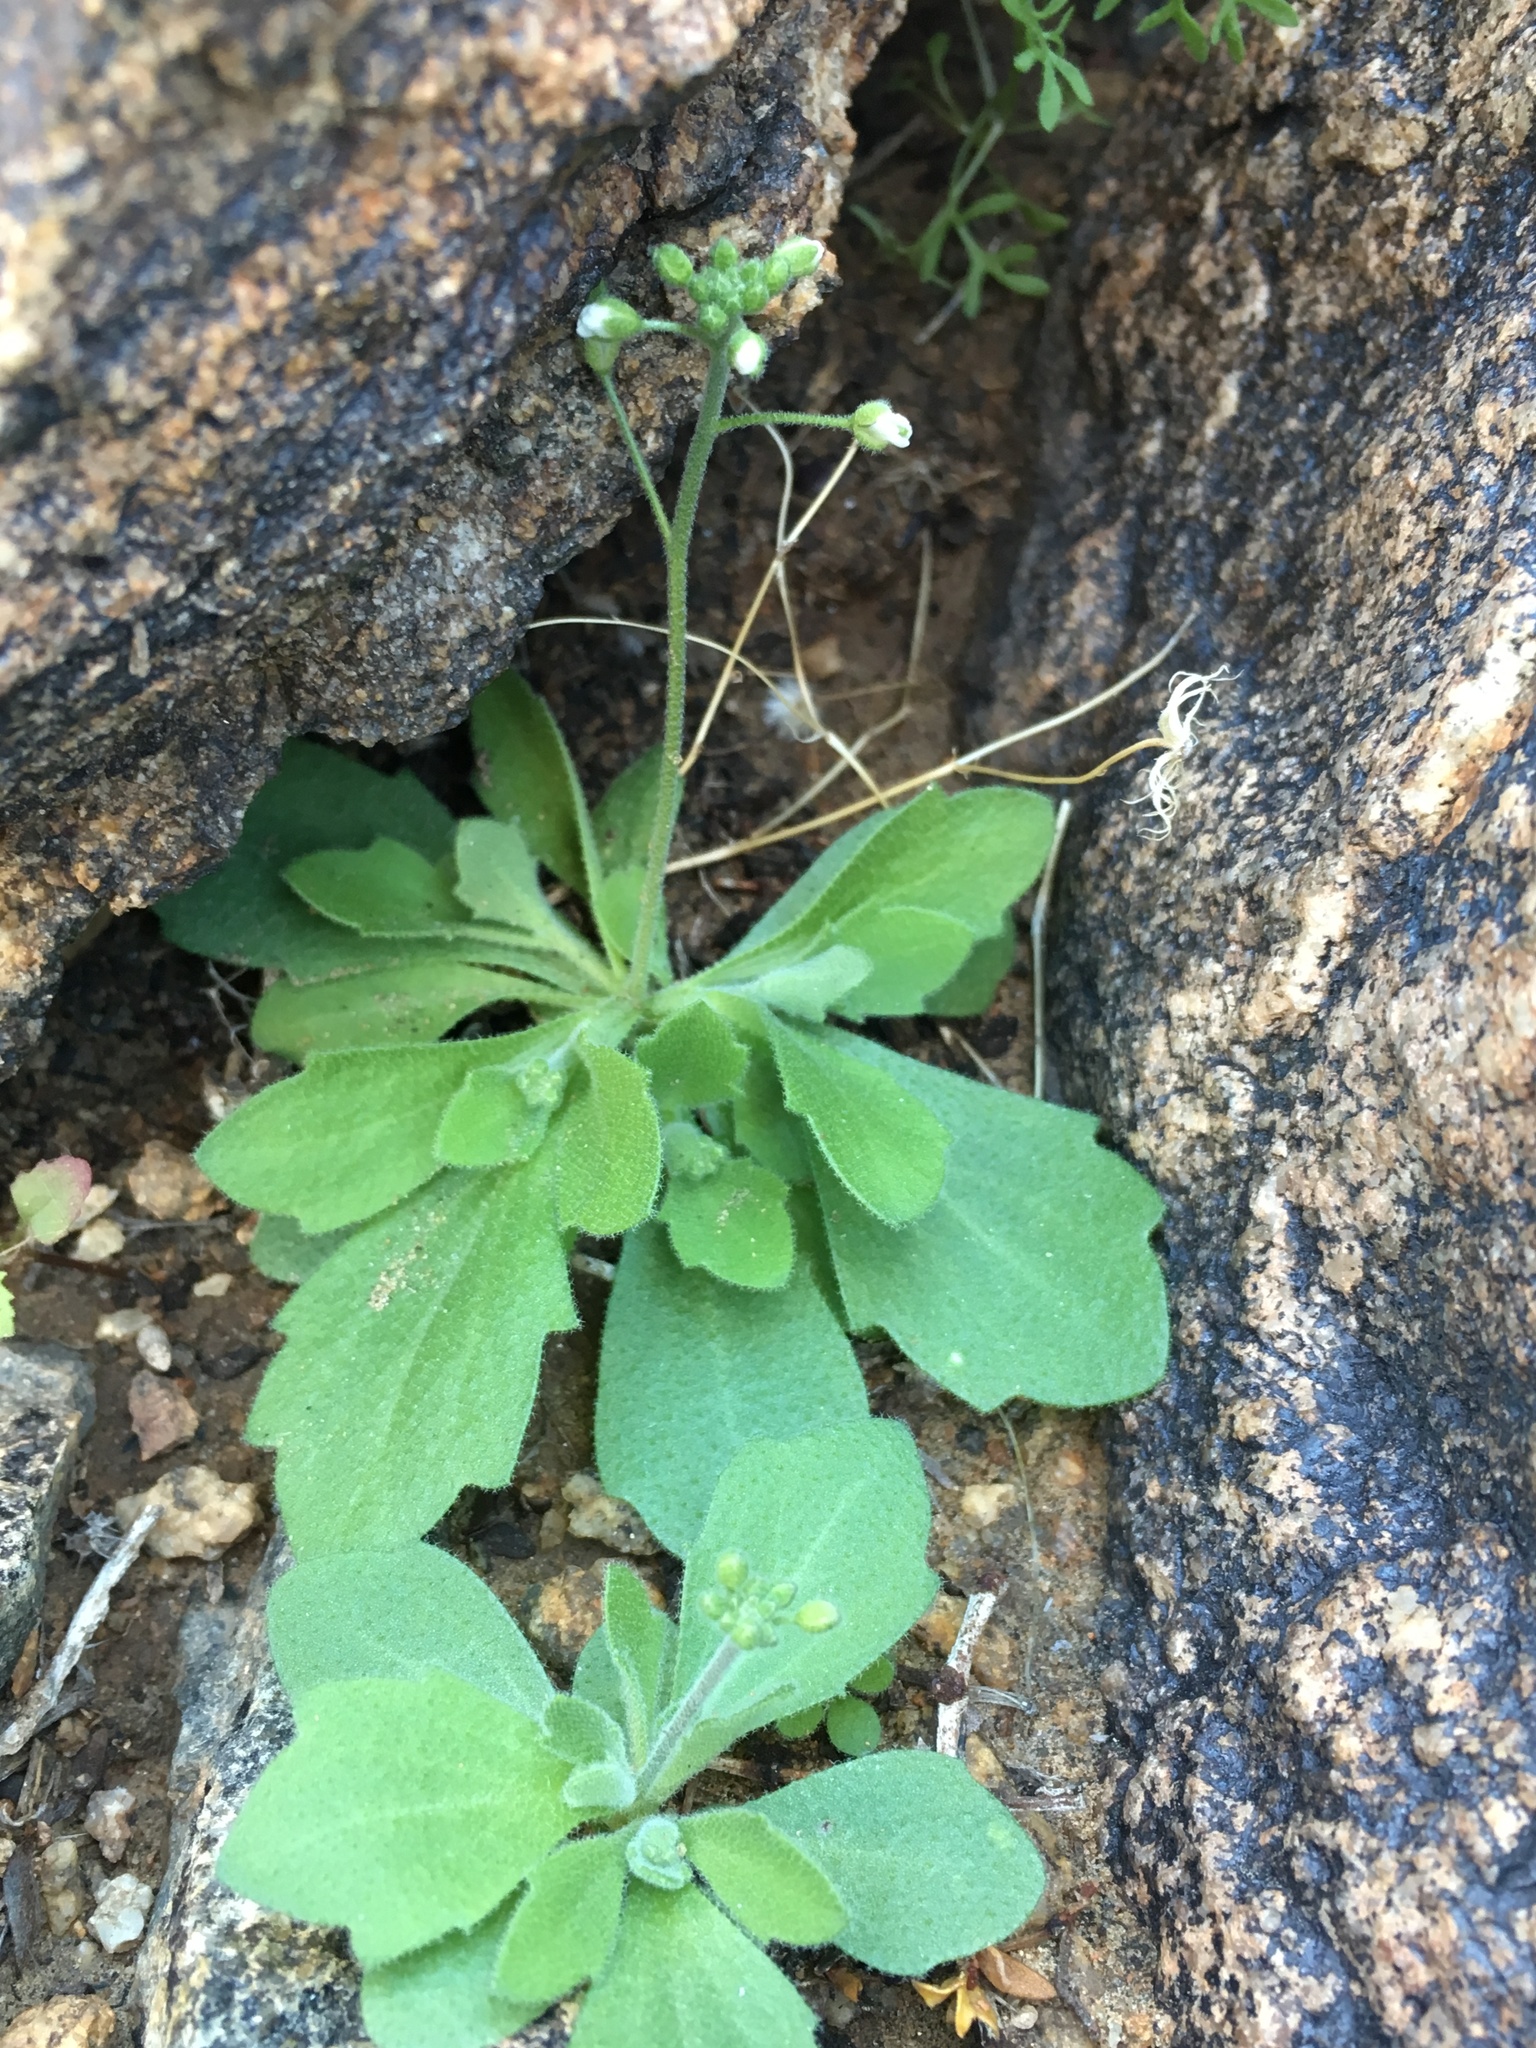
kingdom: Plantae
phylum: Tracheophyta
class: Magnoliopsida
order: Brassicales
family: Brassicaceae
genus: Tomostima
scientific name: Tomostima cuneifolia
